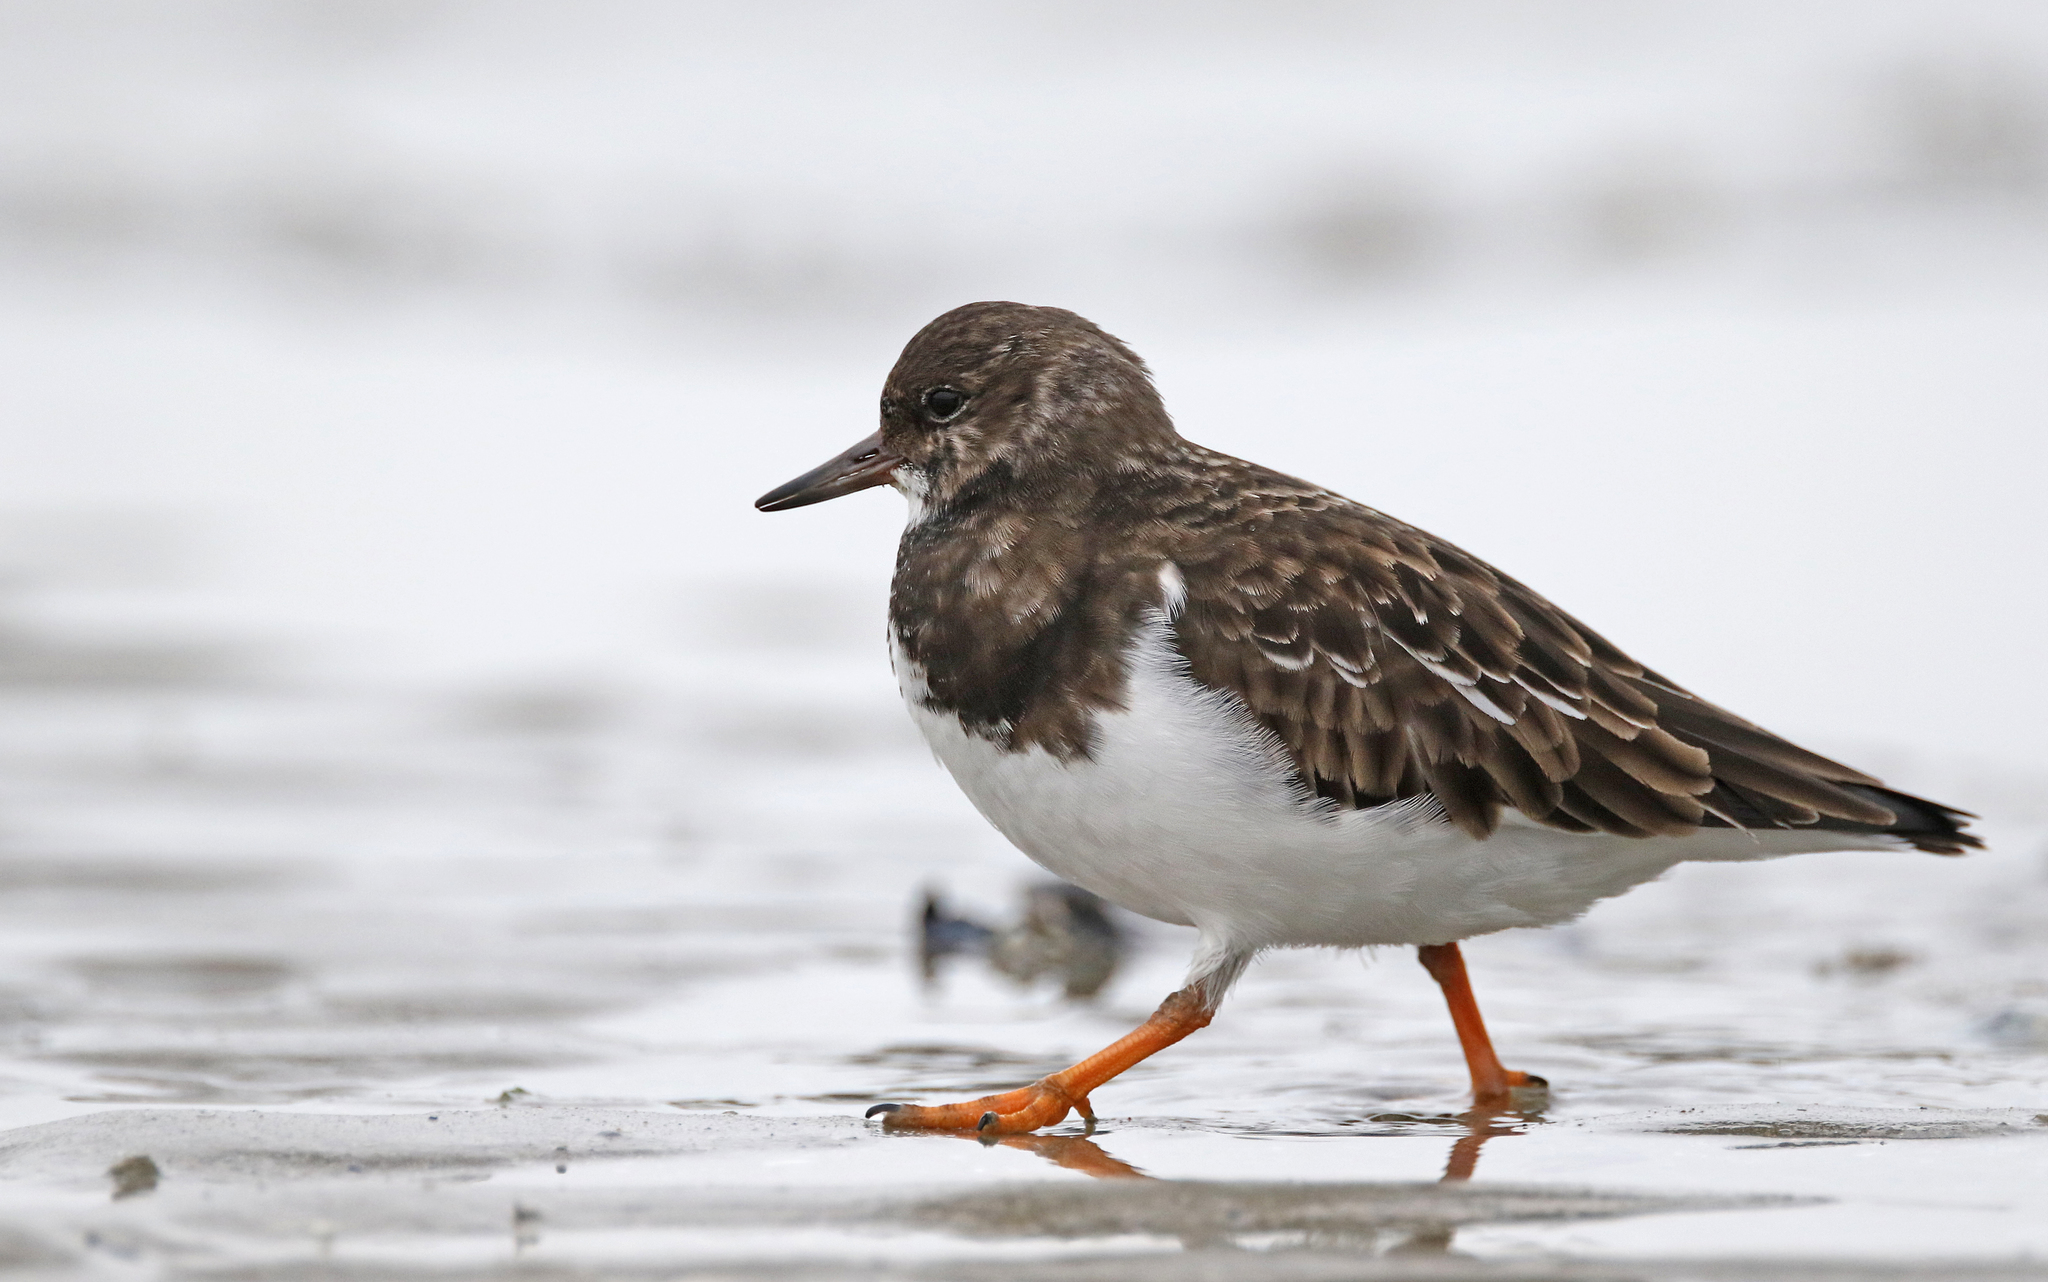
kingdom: Animalia
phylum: Chordata
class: Aves
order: Charadriiformes
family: Scolopacidae
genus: Arenaria
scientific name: Arenaria interpres
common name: Ruddy turnstone
